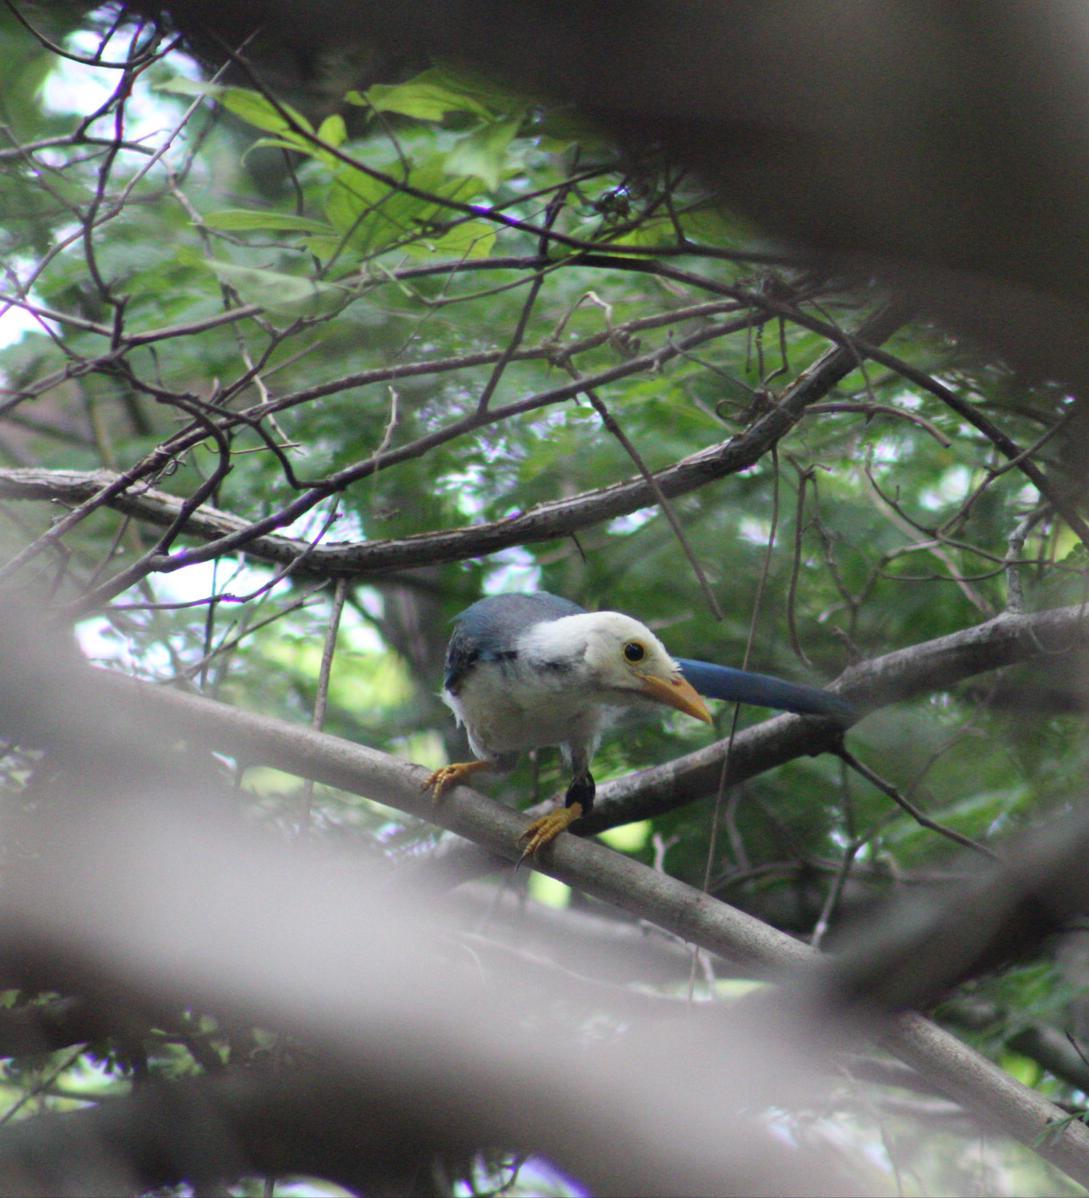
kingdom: Animalia
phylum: Chordata
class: Aves
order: Passeriformes
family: Corvidae
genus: Cyanocorax
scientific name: Cyanocorax yucatanicus
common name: Yucatan jay
